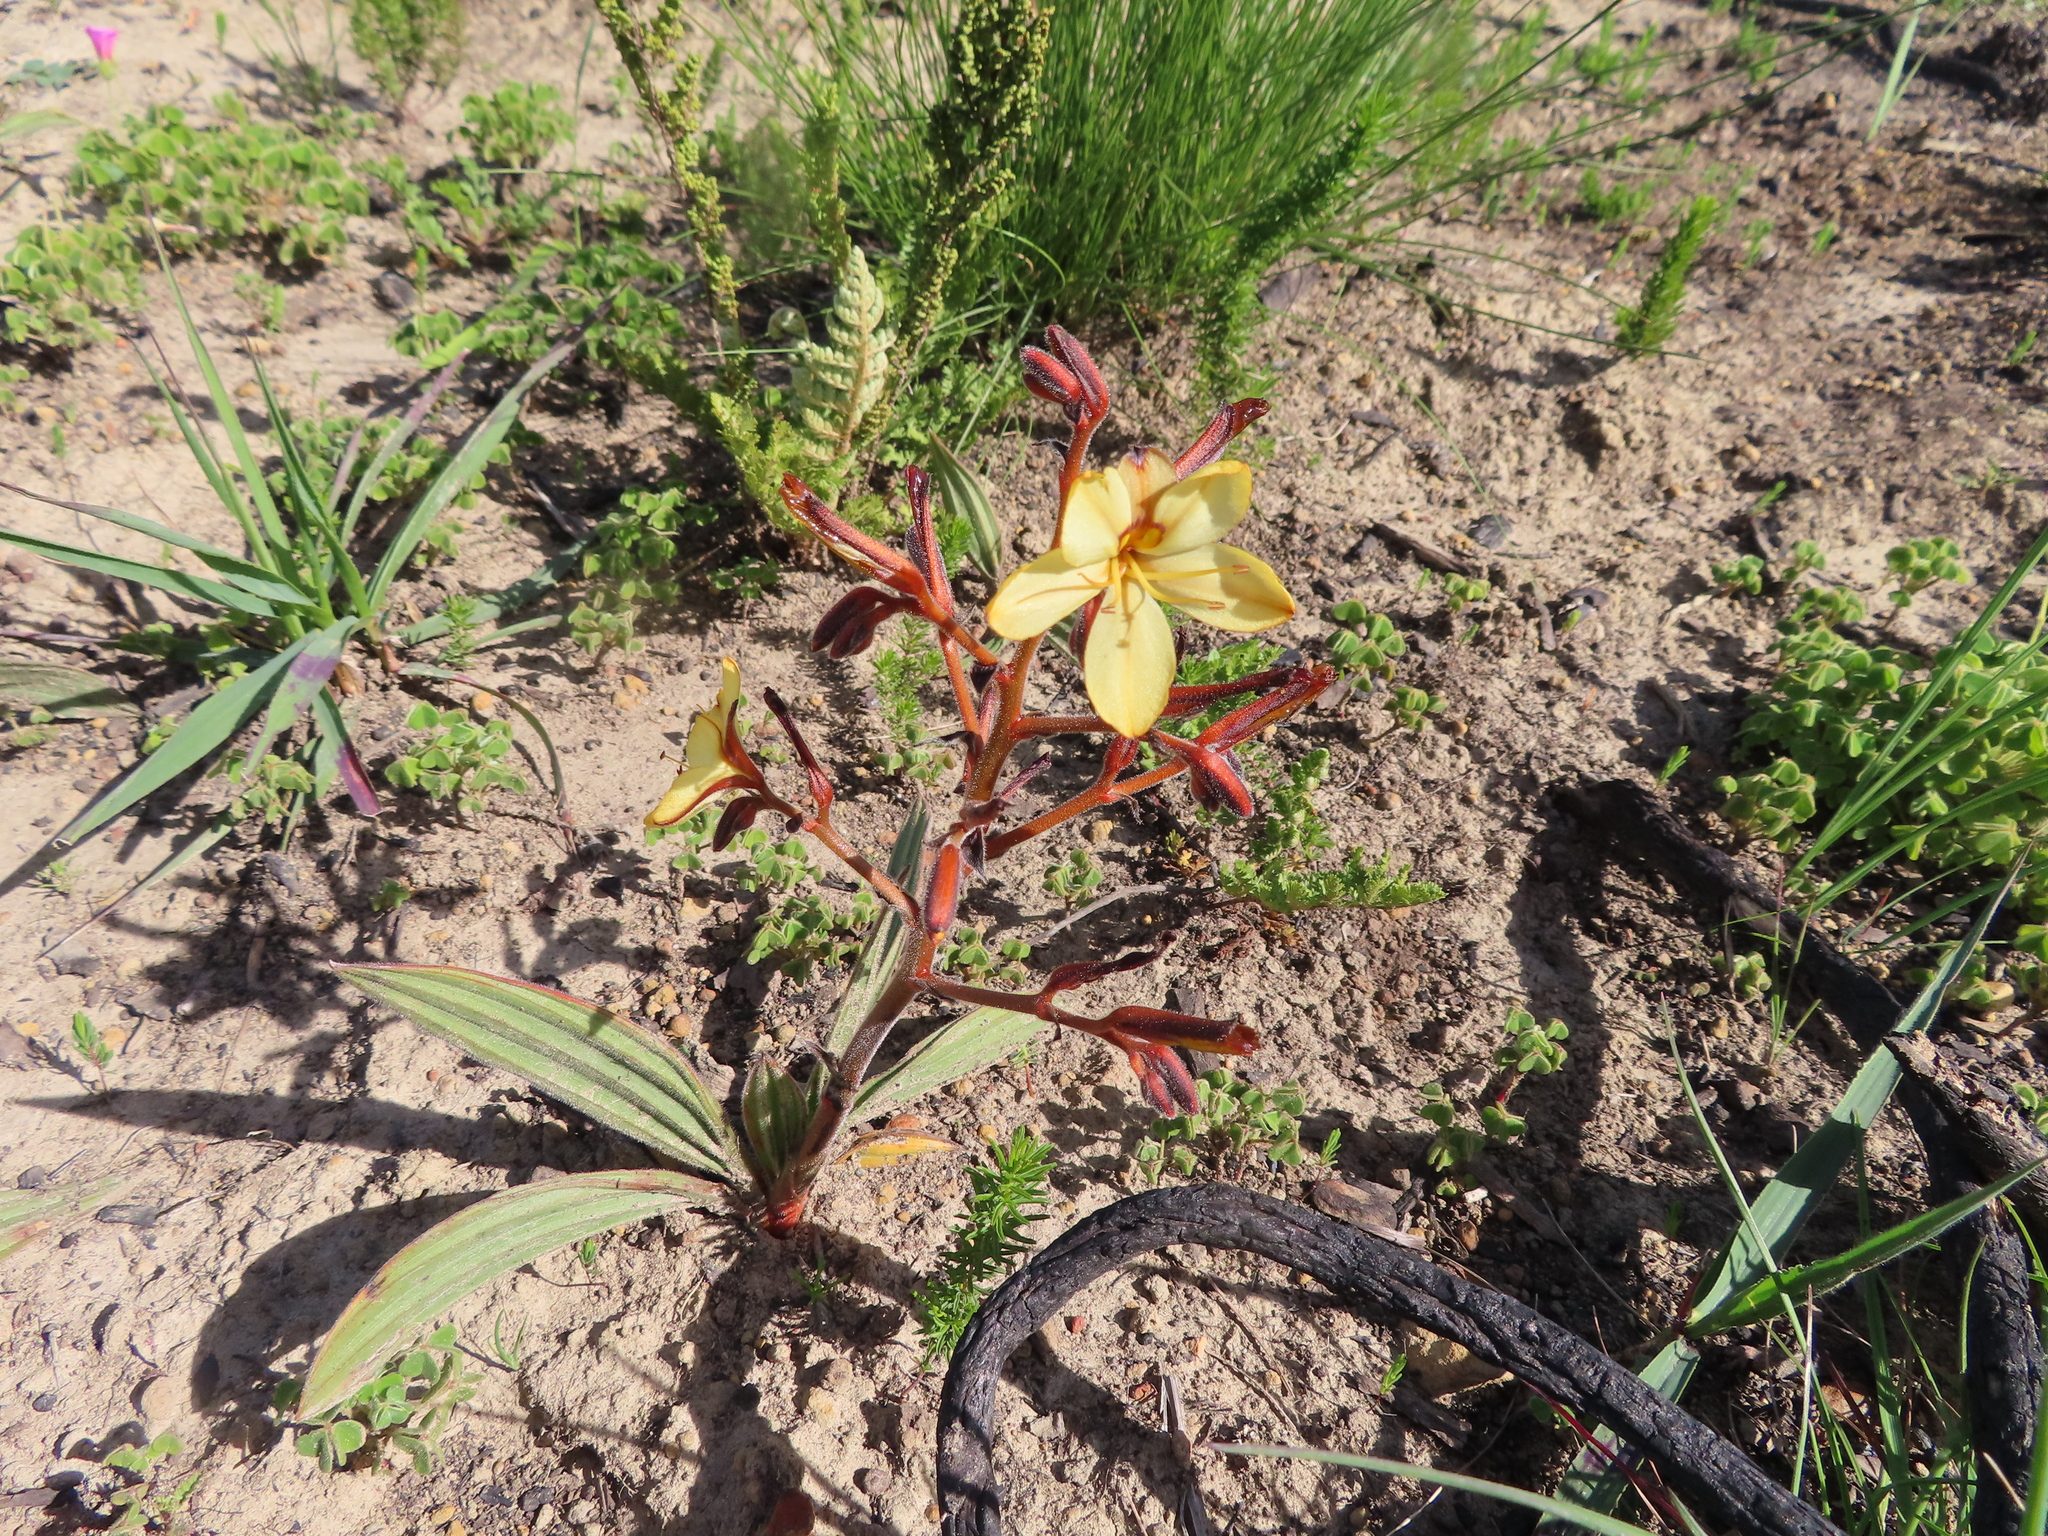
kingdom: Plantae
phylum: Tracheophyta
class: Liliopsida
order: Commelinales
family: Haemodoraceae
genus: Wachendorfia
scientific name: Wachendorfia paniculata
